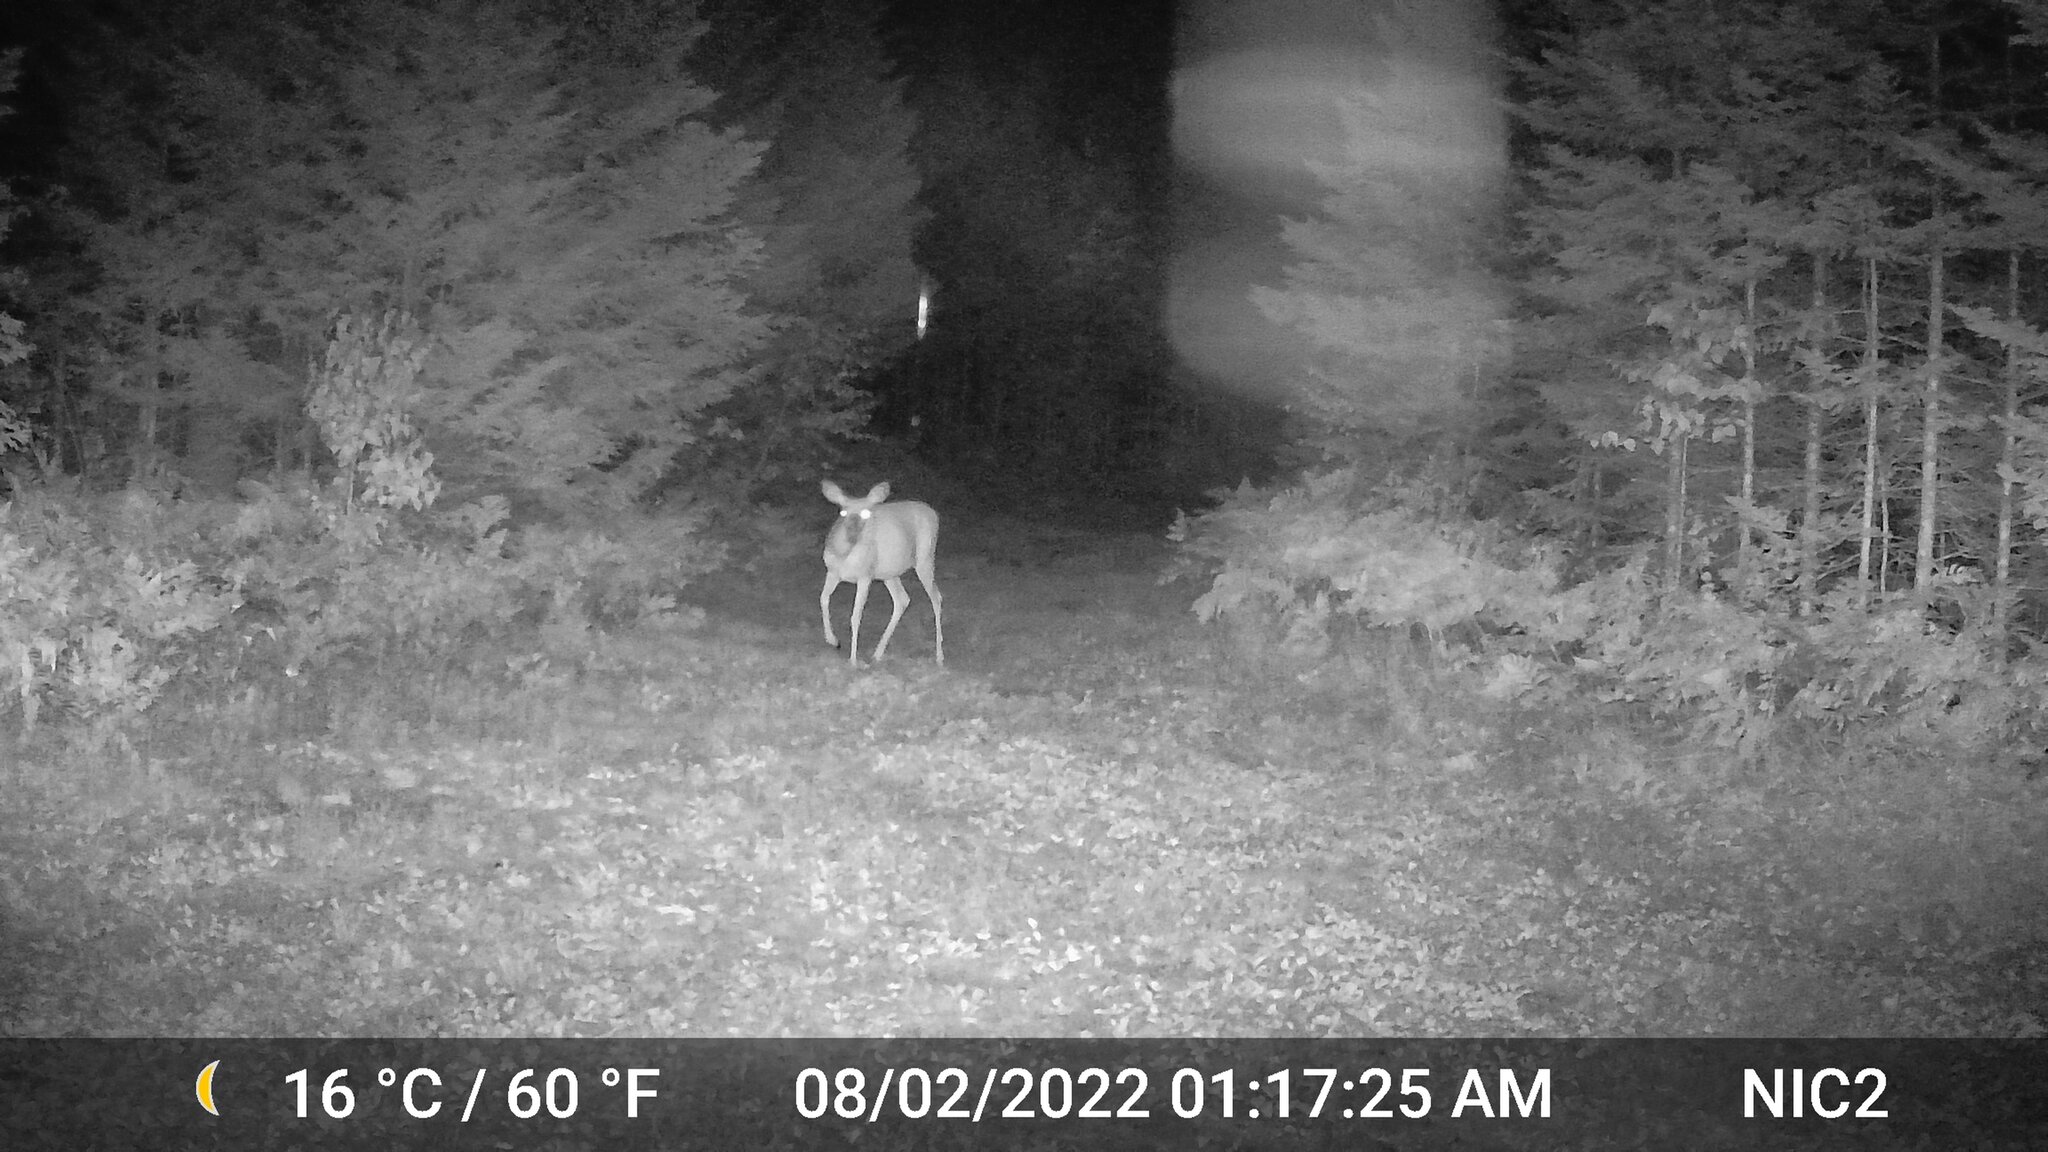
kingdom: Animalia
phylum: Chordata
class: Mammalia
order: Artiodactyla
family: Cervidae
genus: Odocoileus
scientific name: Odocoileus virginianus
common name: White-tailed deer
